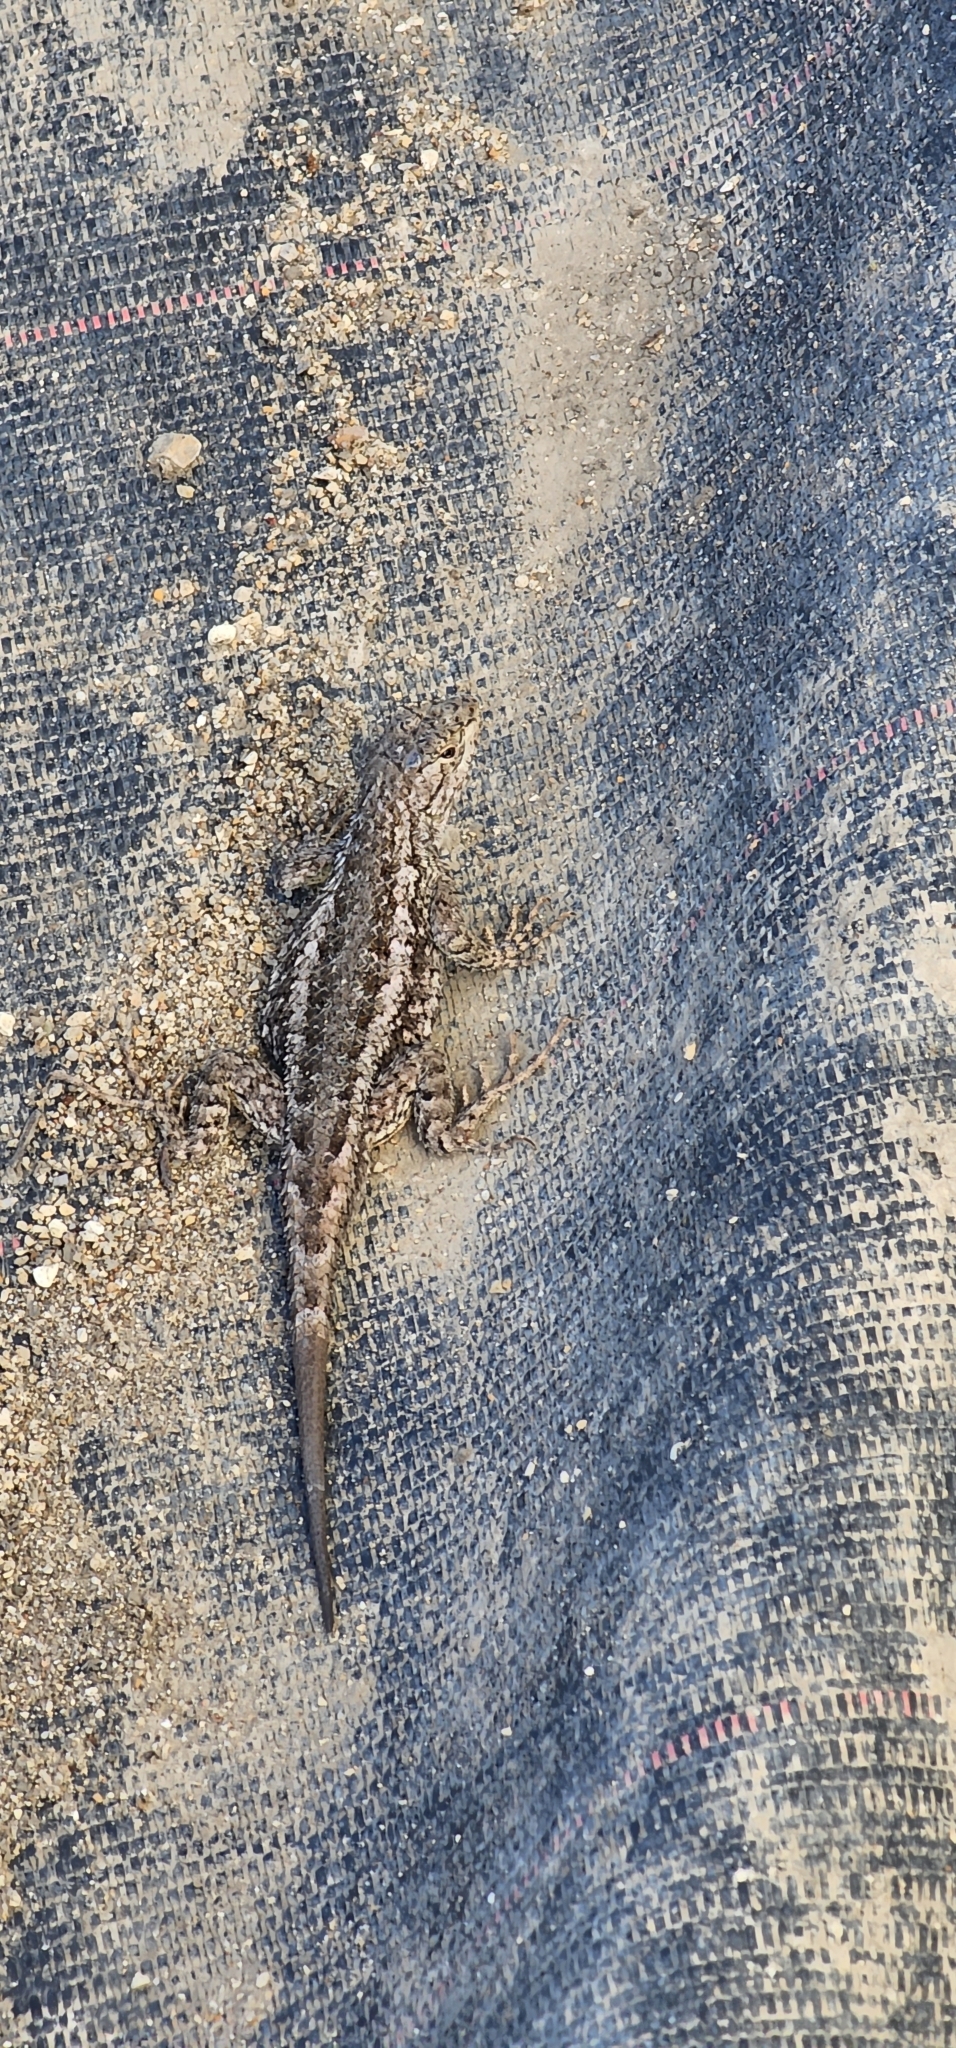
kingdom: Animalia
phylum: Chordata
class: Squamata
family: Phrynosomatidae
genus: Sceloporus
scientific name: Sceloporus occidentalis
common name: Western fence lizard
